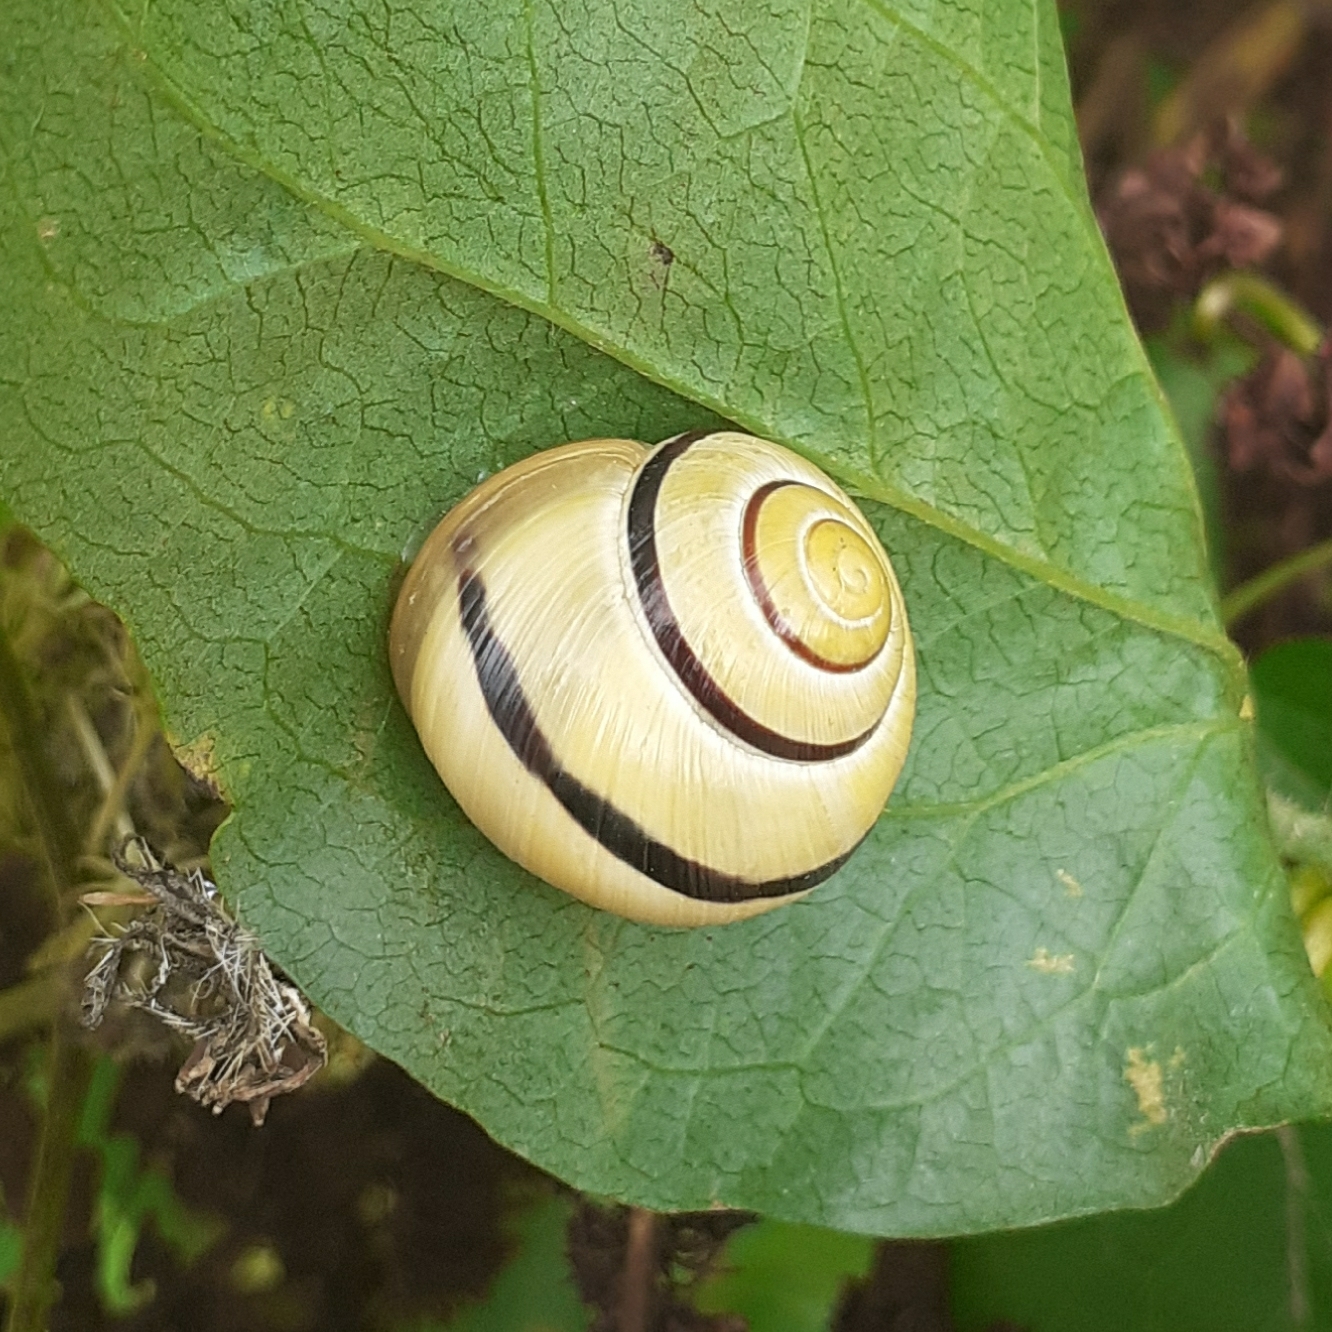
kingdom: Animalia
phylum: Mollusca
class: Gastropoda
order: Stylommatophora
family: Helicidae
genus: Cepaea
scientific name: Cepaea
